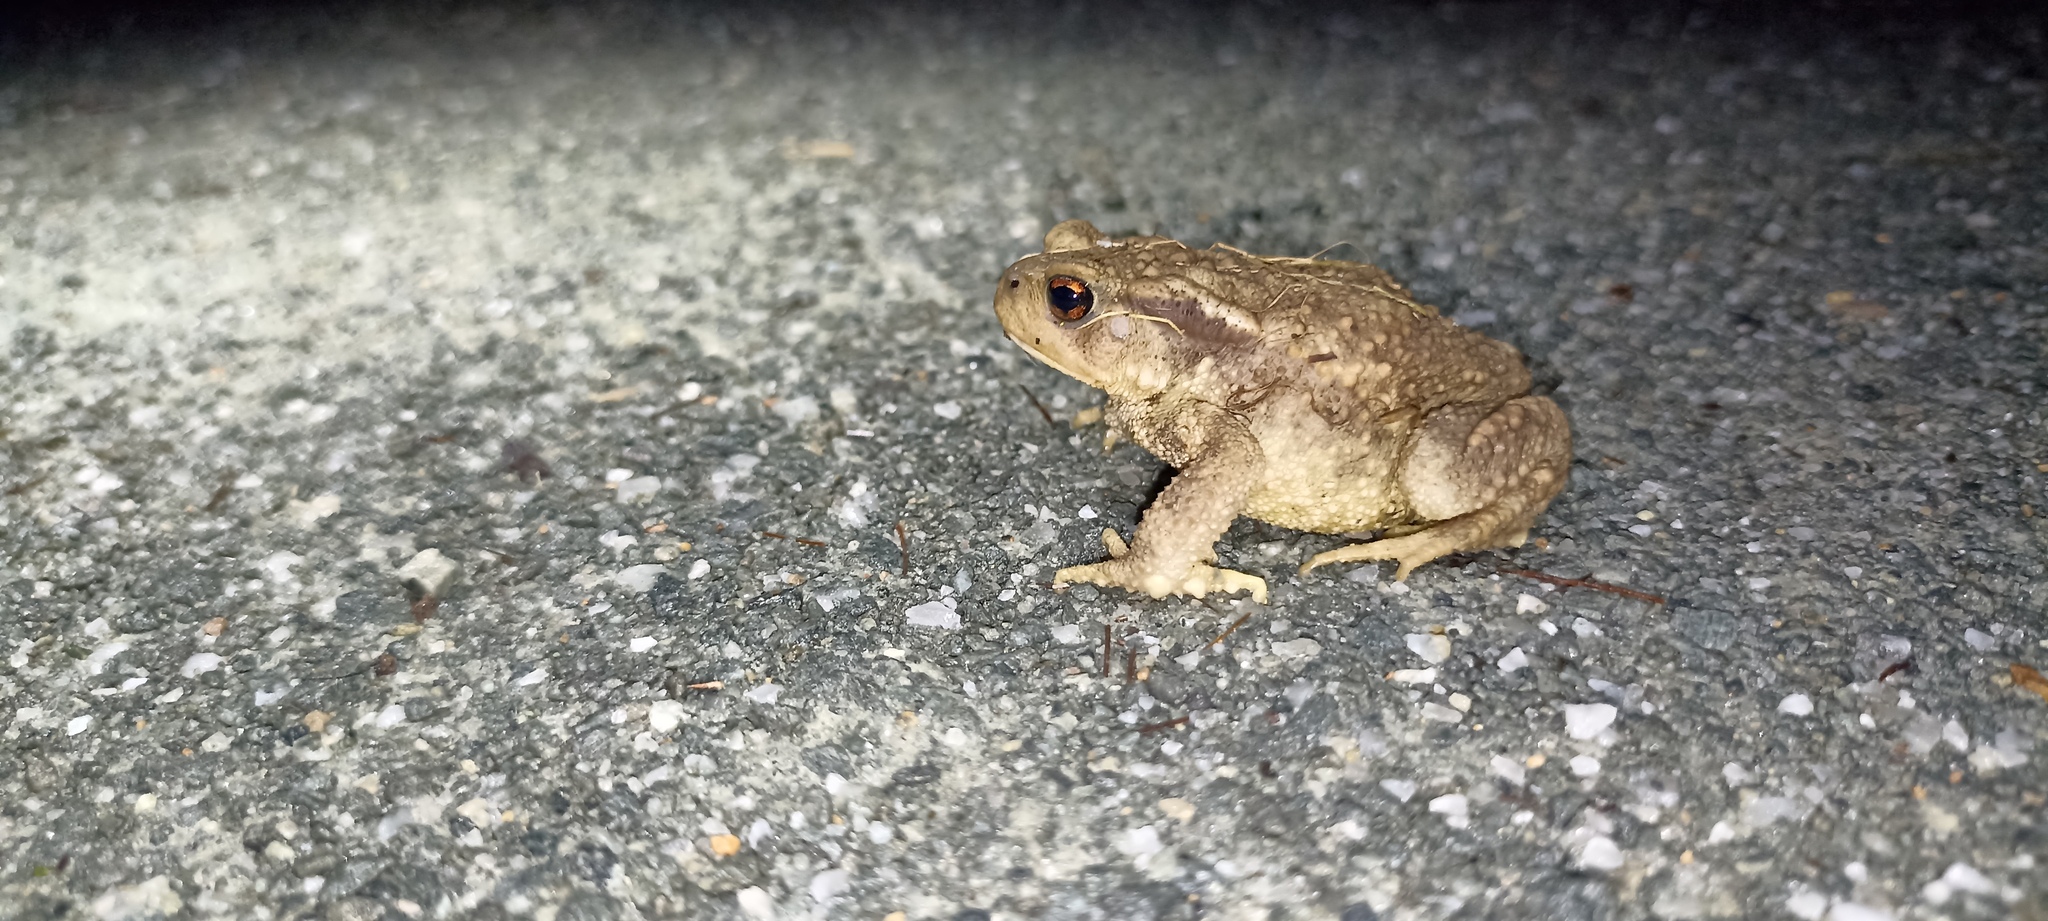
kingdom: Animalia
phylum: Chordata
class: Amphibia
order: Anura
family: Bufonidae
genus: Bufo
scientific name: Bufo spinosus
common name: Western common toad
